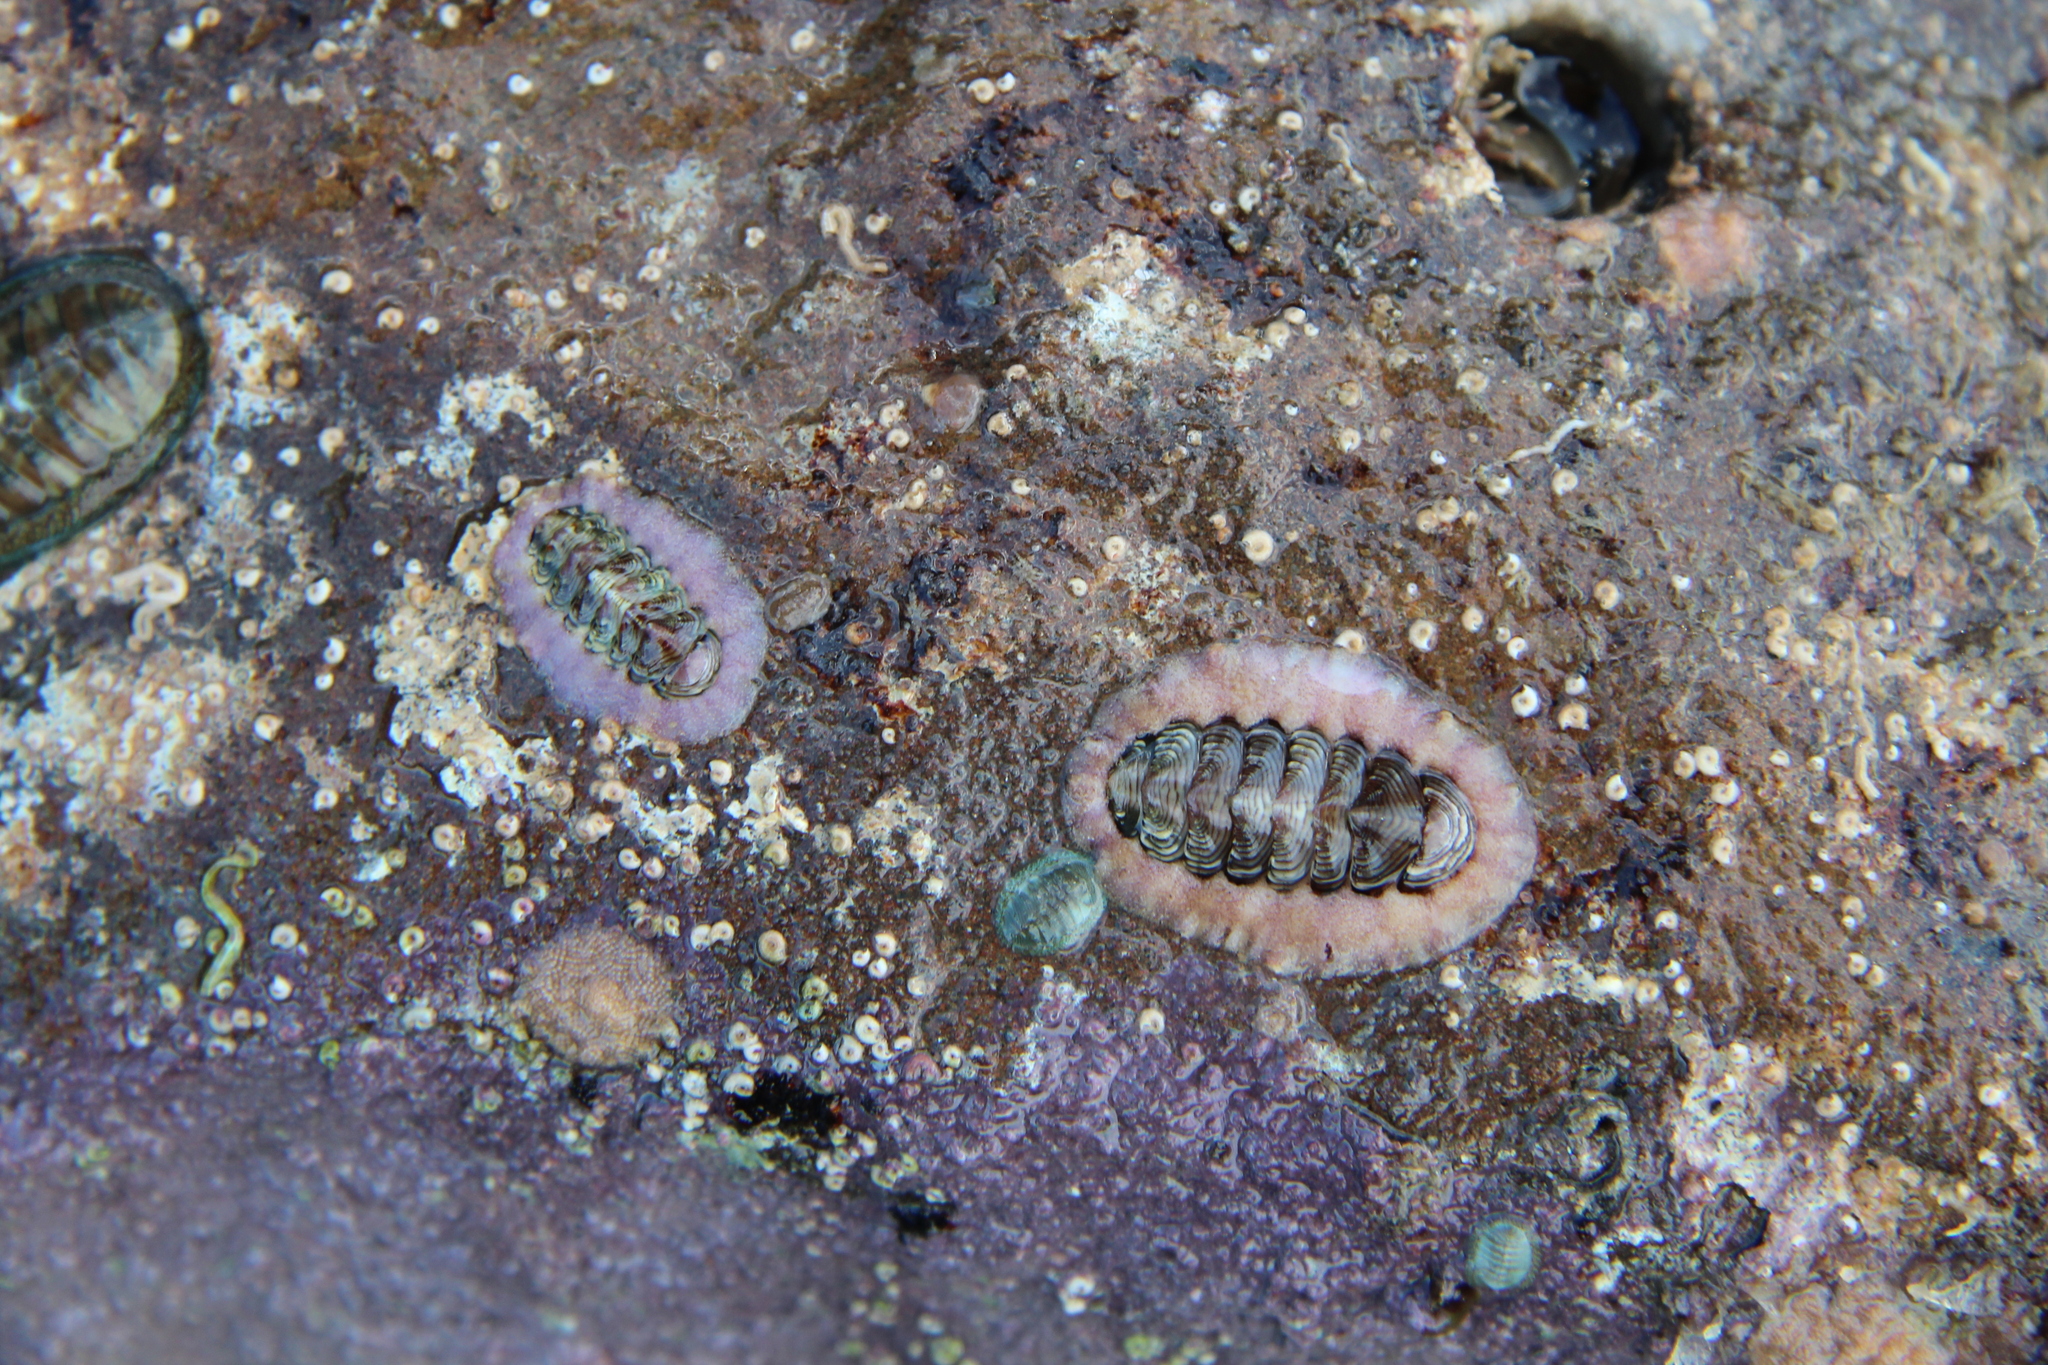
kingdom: Animalia
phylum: Mollusca
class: Polyplacophora
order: Chitonida
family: Chitonidae
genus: Onithochiton
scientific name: Onithochiton neglectus
